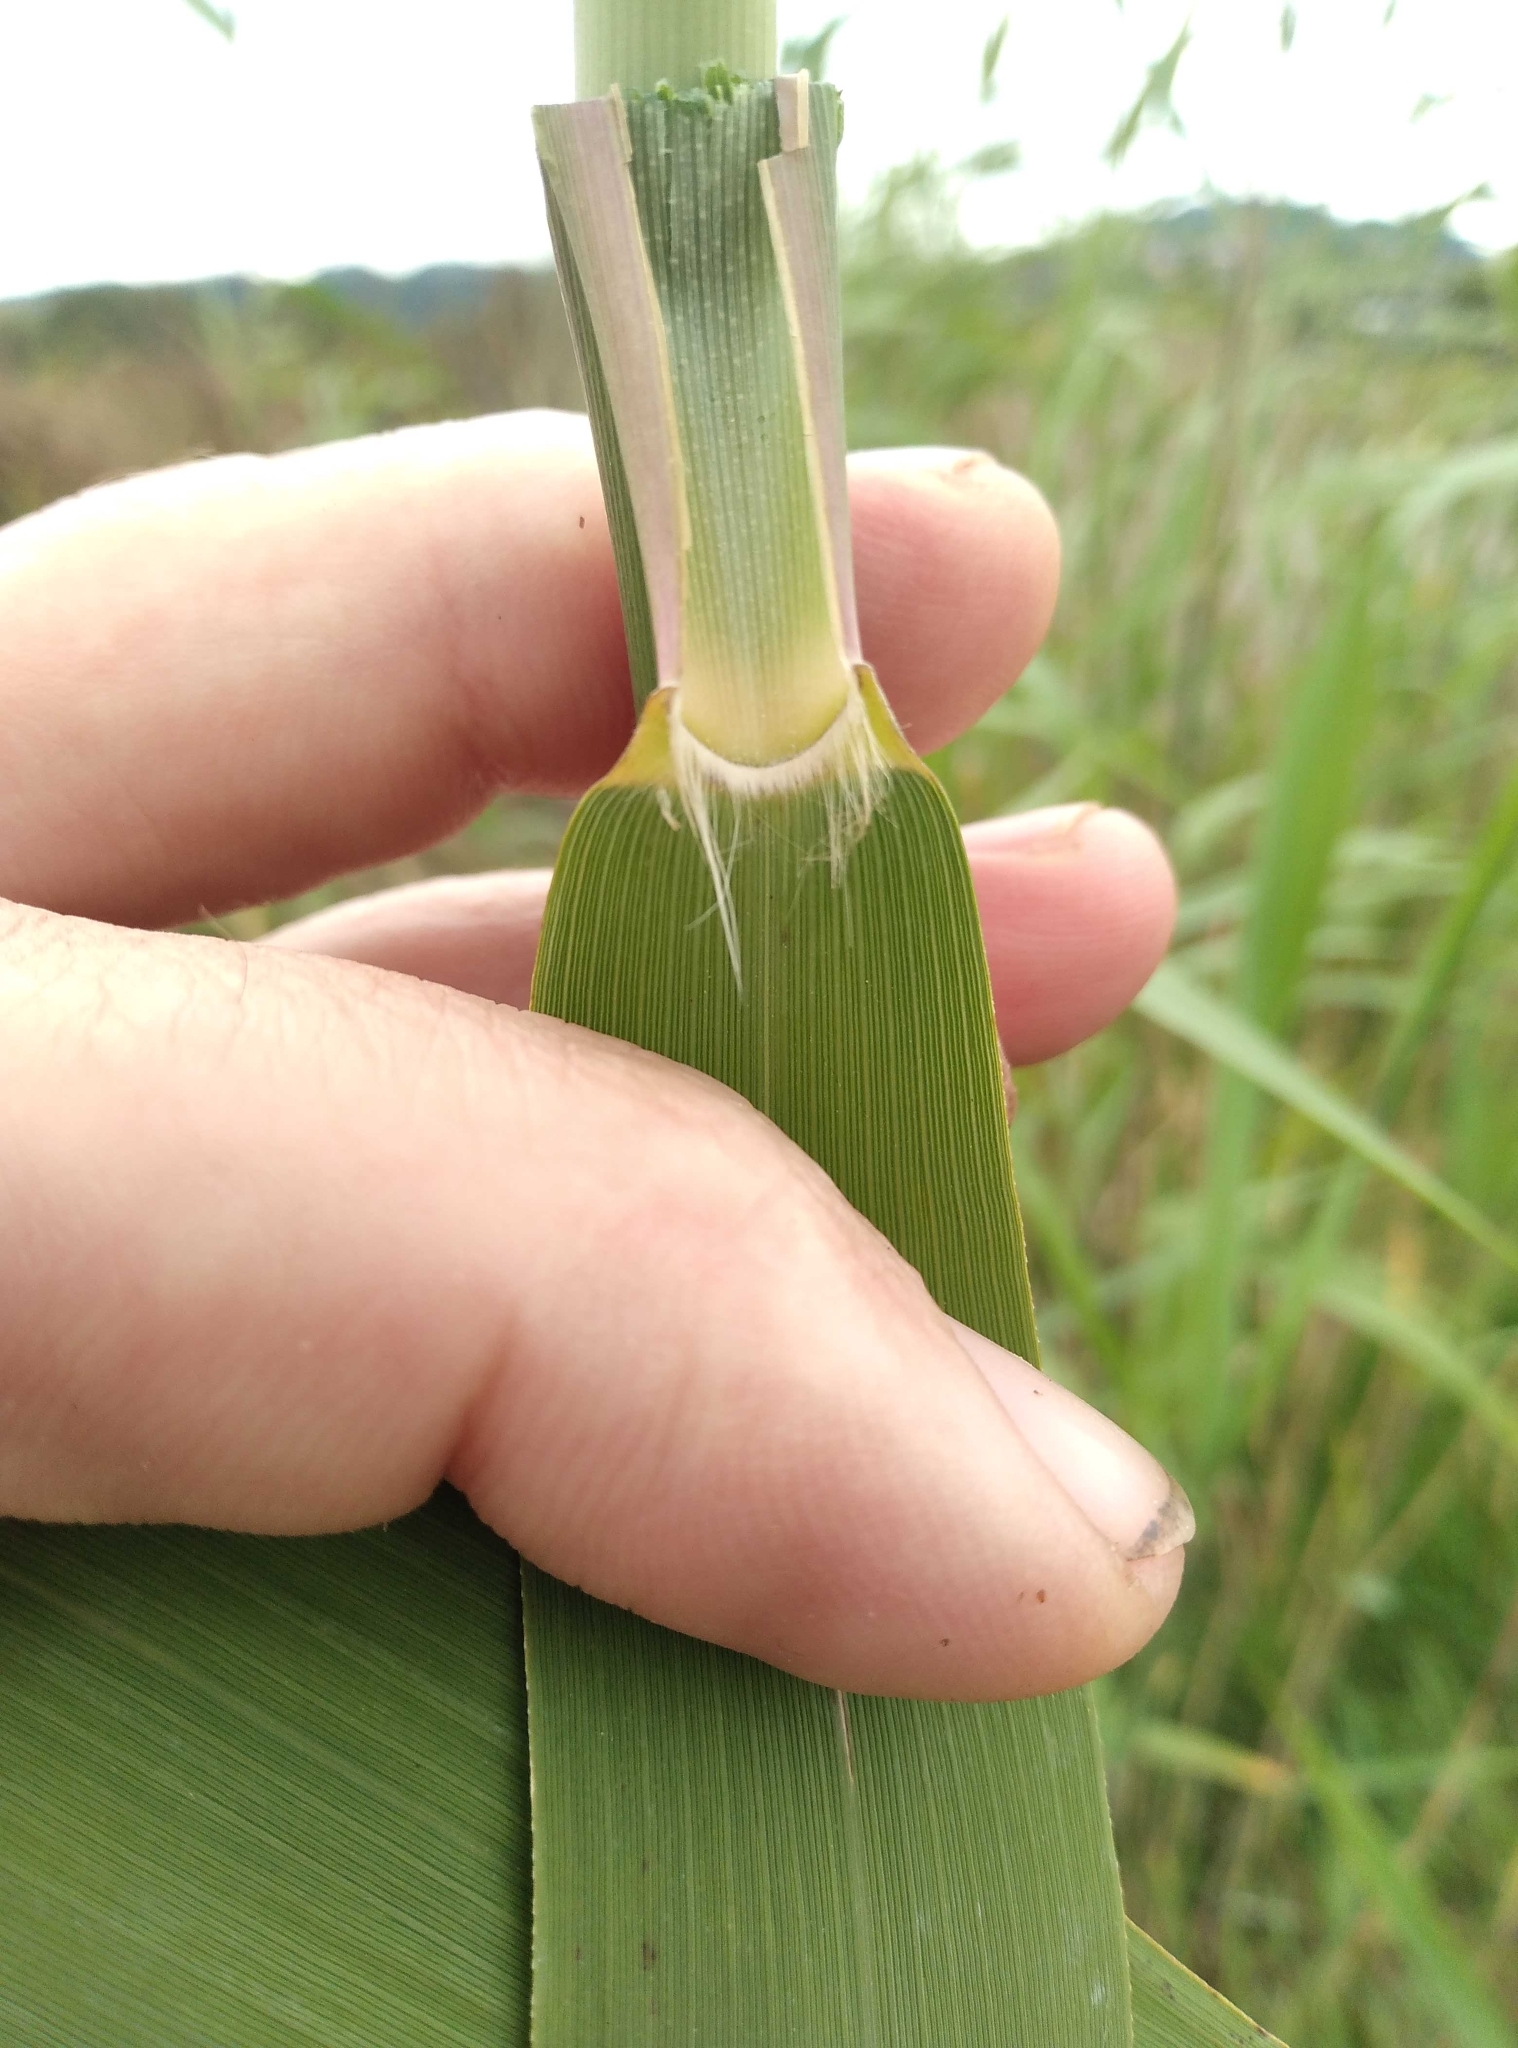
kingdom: Plantae
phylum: Tracheophyta
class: Liliopsida
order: Poales
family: Poaceae
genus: Phragmites
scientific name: Phragmites australis
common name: Common reed
